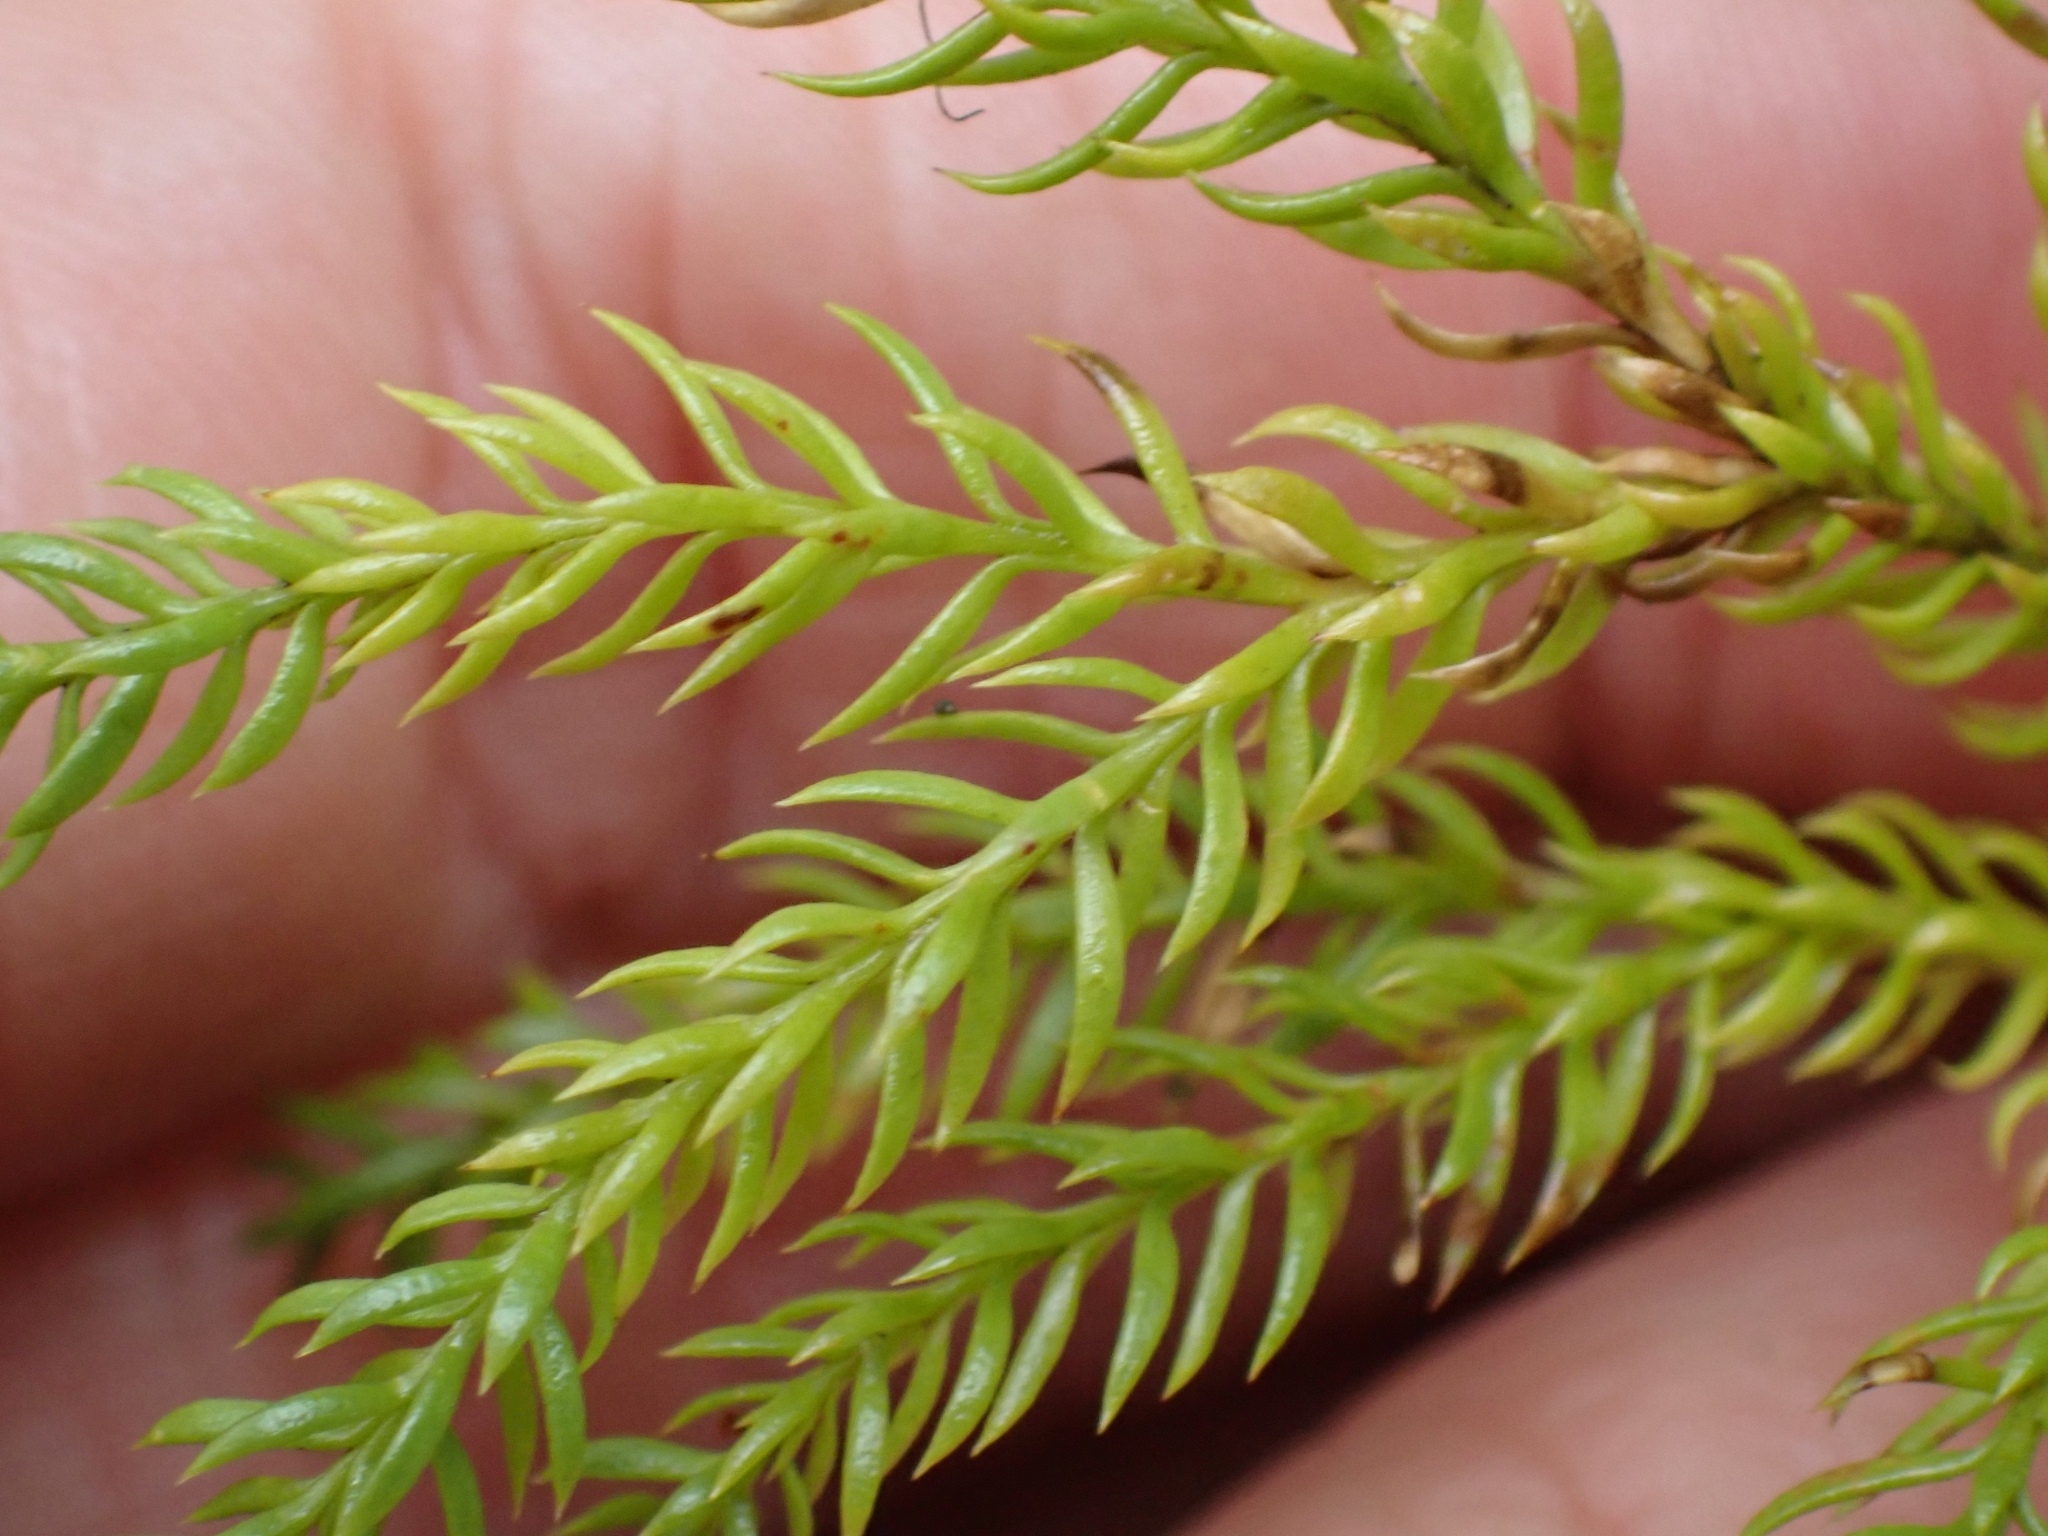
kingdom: Plantae
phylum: Tracheophyta
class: Lycopodiopsida
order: Lycopodiales
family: Lycopodiaceae
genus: Dendrolycopodium
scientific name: Dendrolycopodium dendroideum
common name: Northern tree-clubmoss
